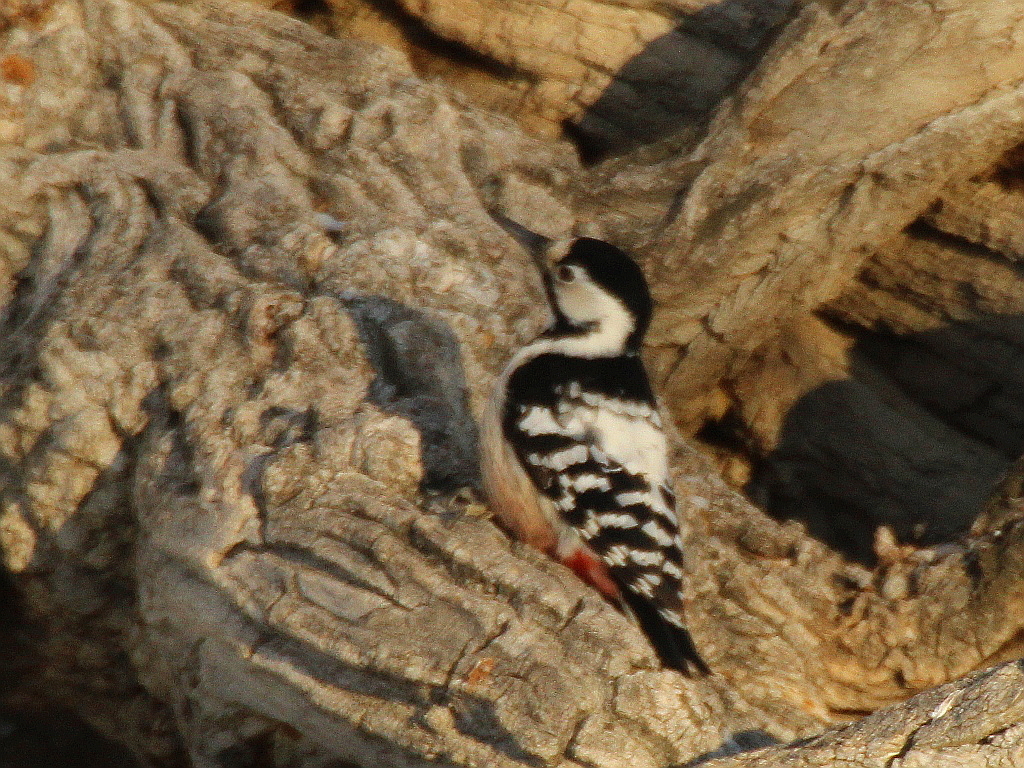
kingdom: Animalia
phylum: Chordata
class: Aves
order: Piciformes
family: Picidae
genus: Dendrocopos
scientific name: Dendrocopos leucotos
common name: White-backed woodpecker
